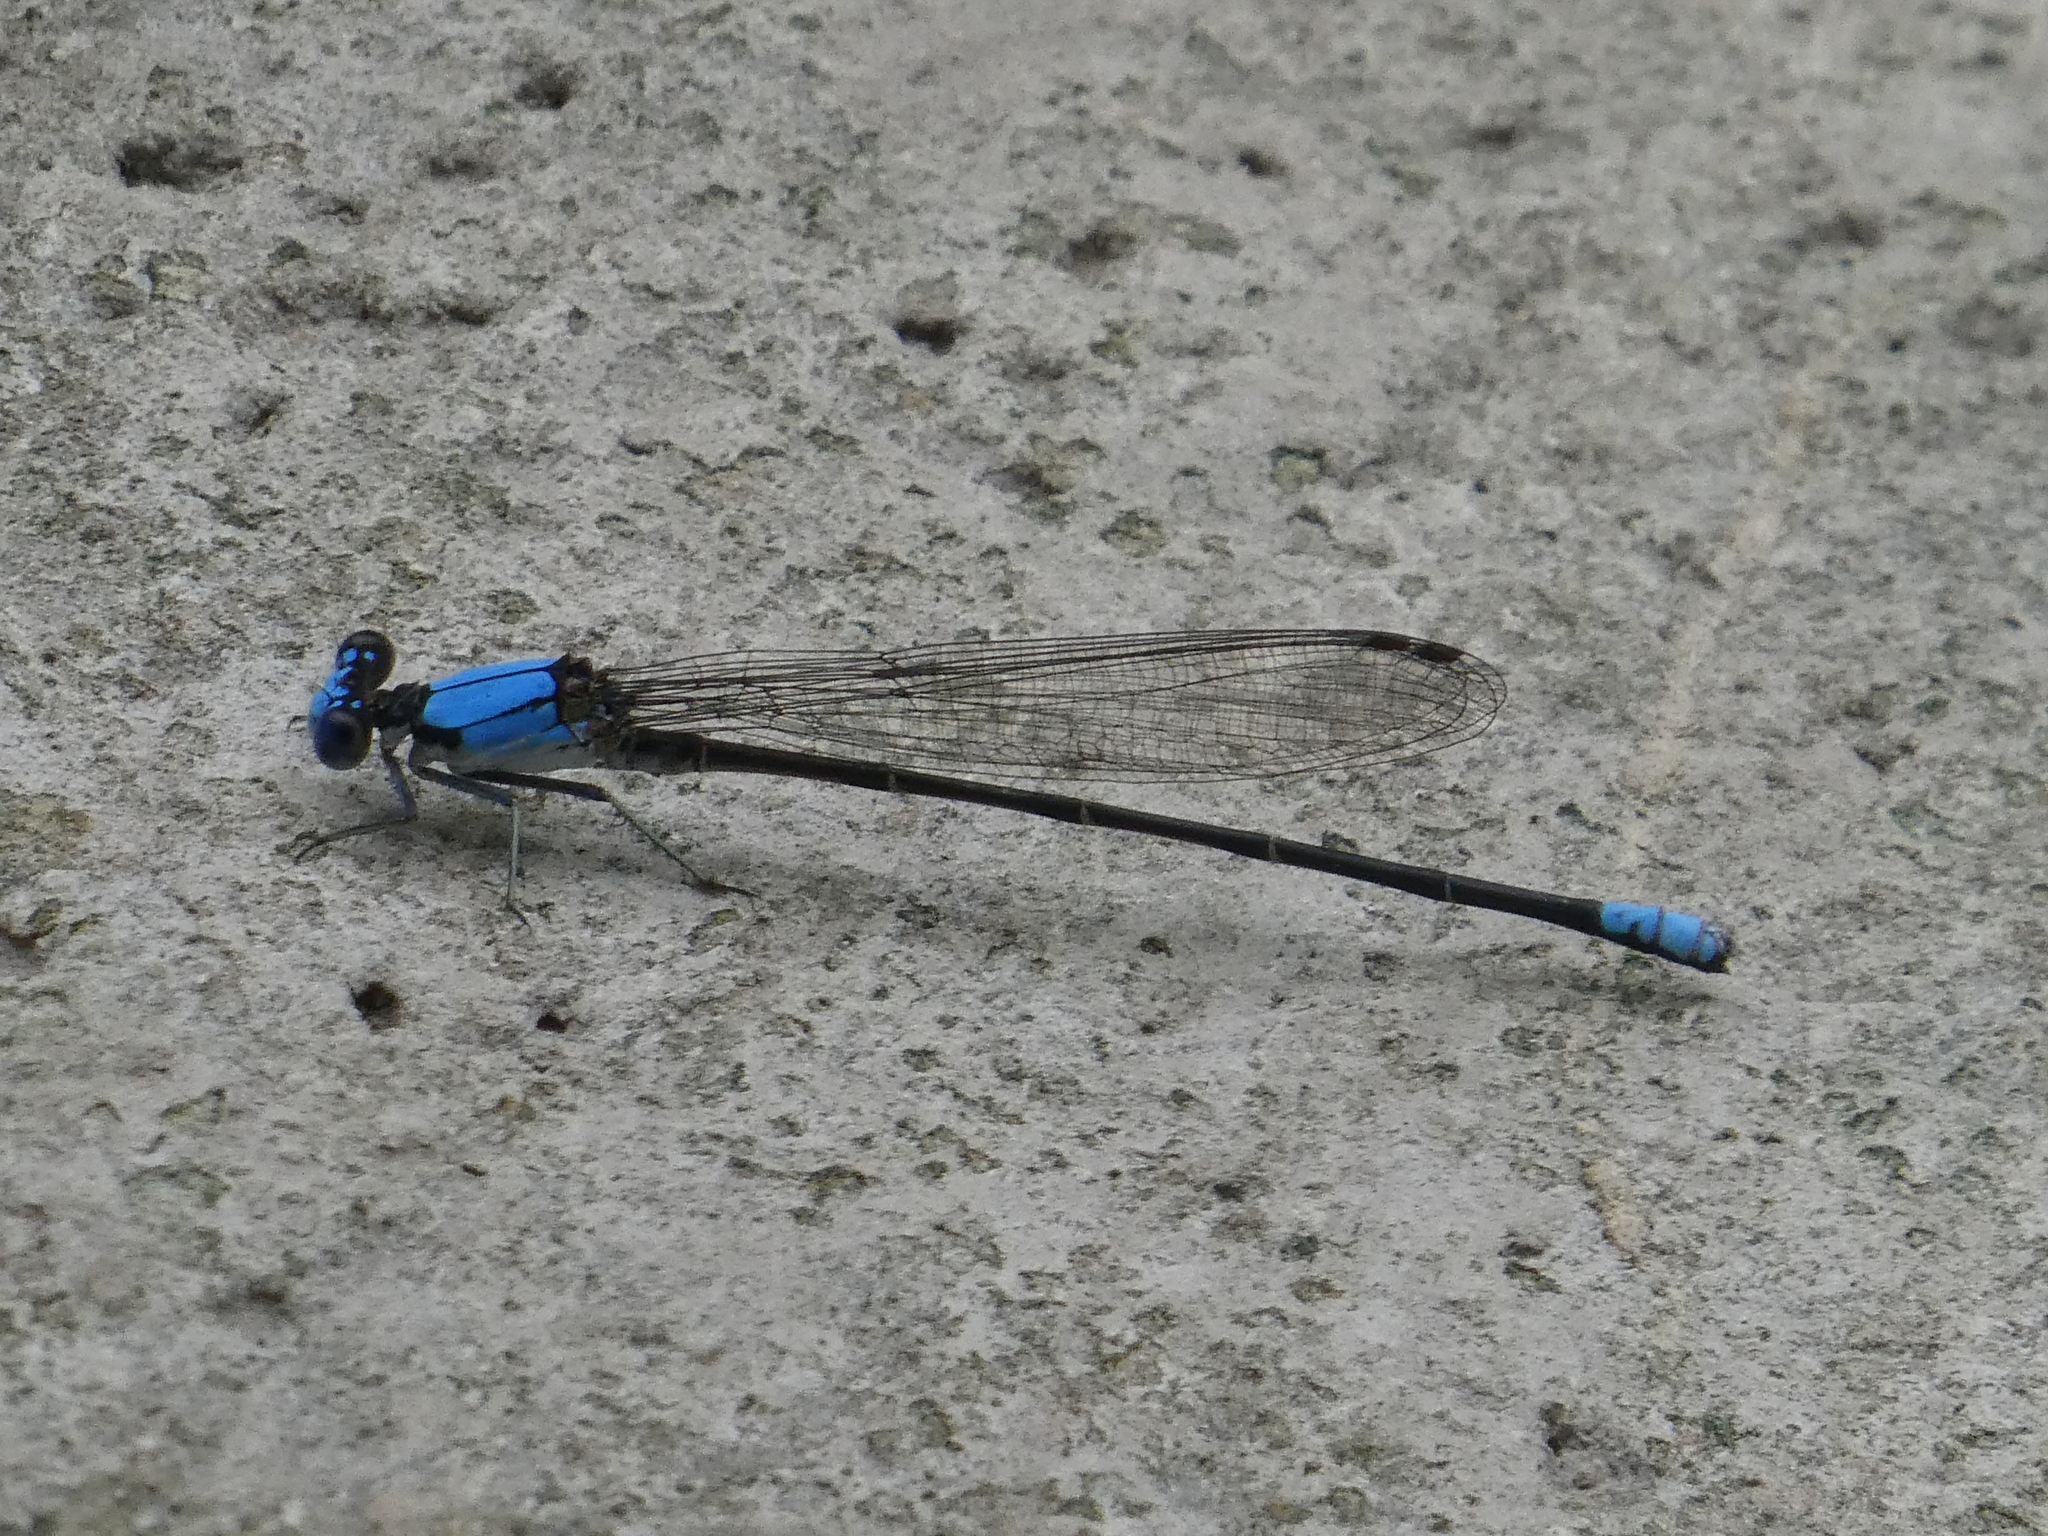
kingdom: Animalia
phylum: Arthropoda
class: Insecta
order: Odonata
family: Coenagrionidae
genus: Argia
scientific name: Argia apicalis
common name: Blue-fronted dancer
